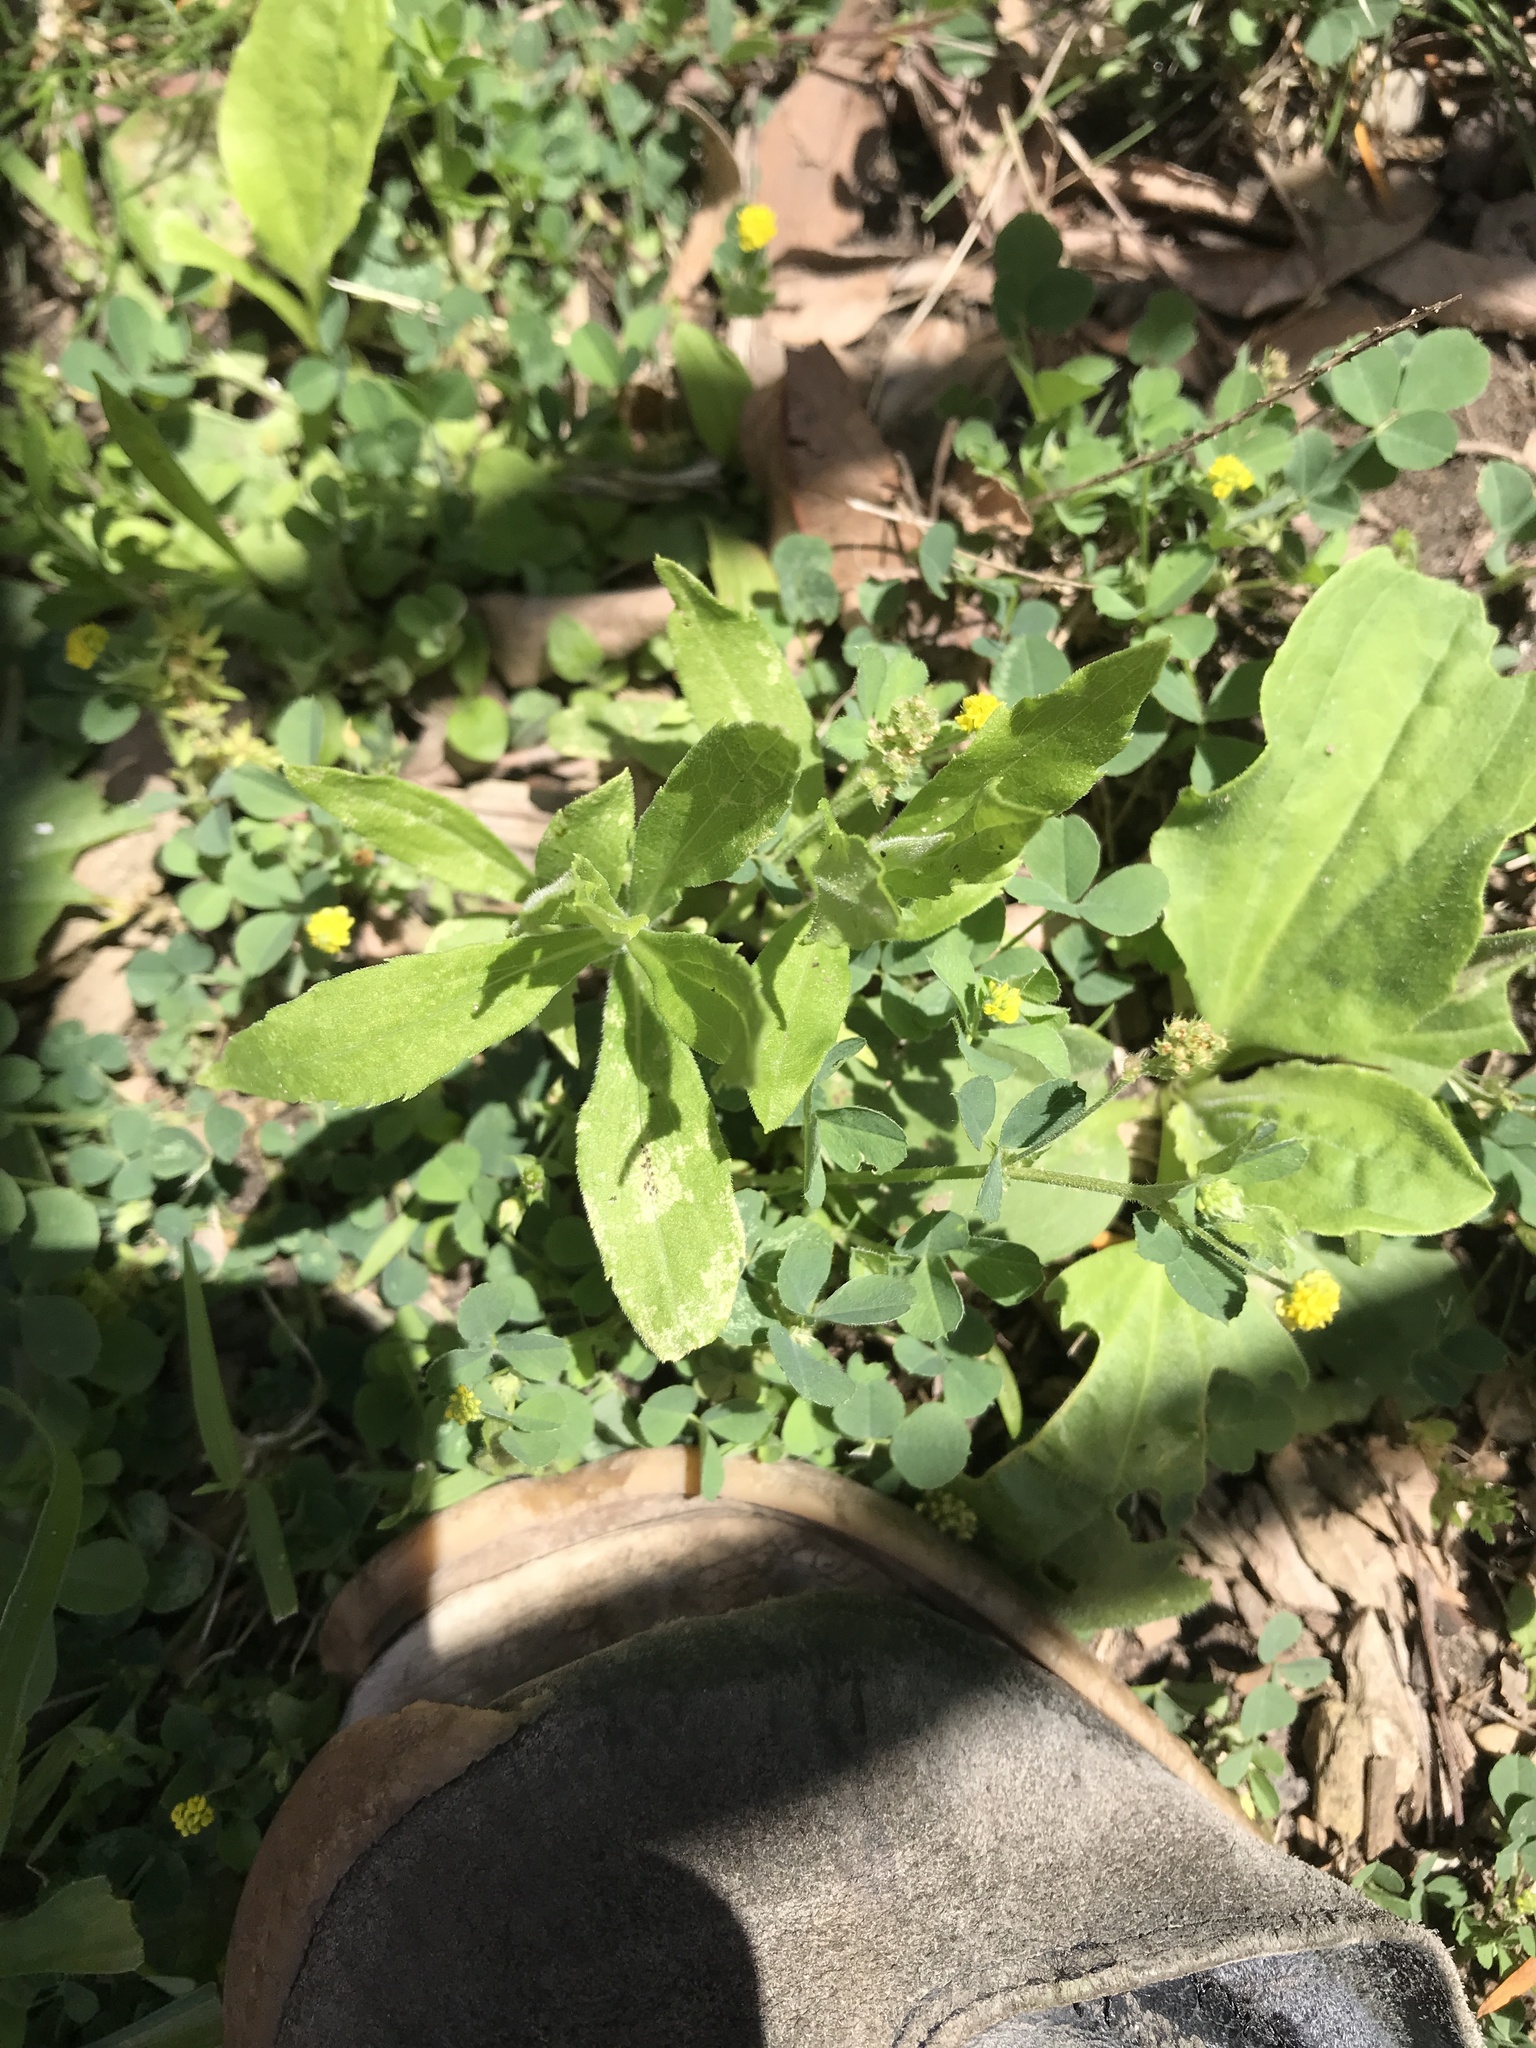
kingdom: Plantae
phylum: Tracheophyta
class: Magnoliopsida
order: Fabales
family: Fabaceae
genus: Medicago
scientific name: Medicago lupulina
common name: Black medick
